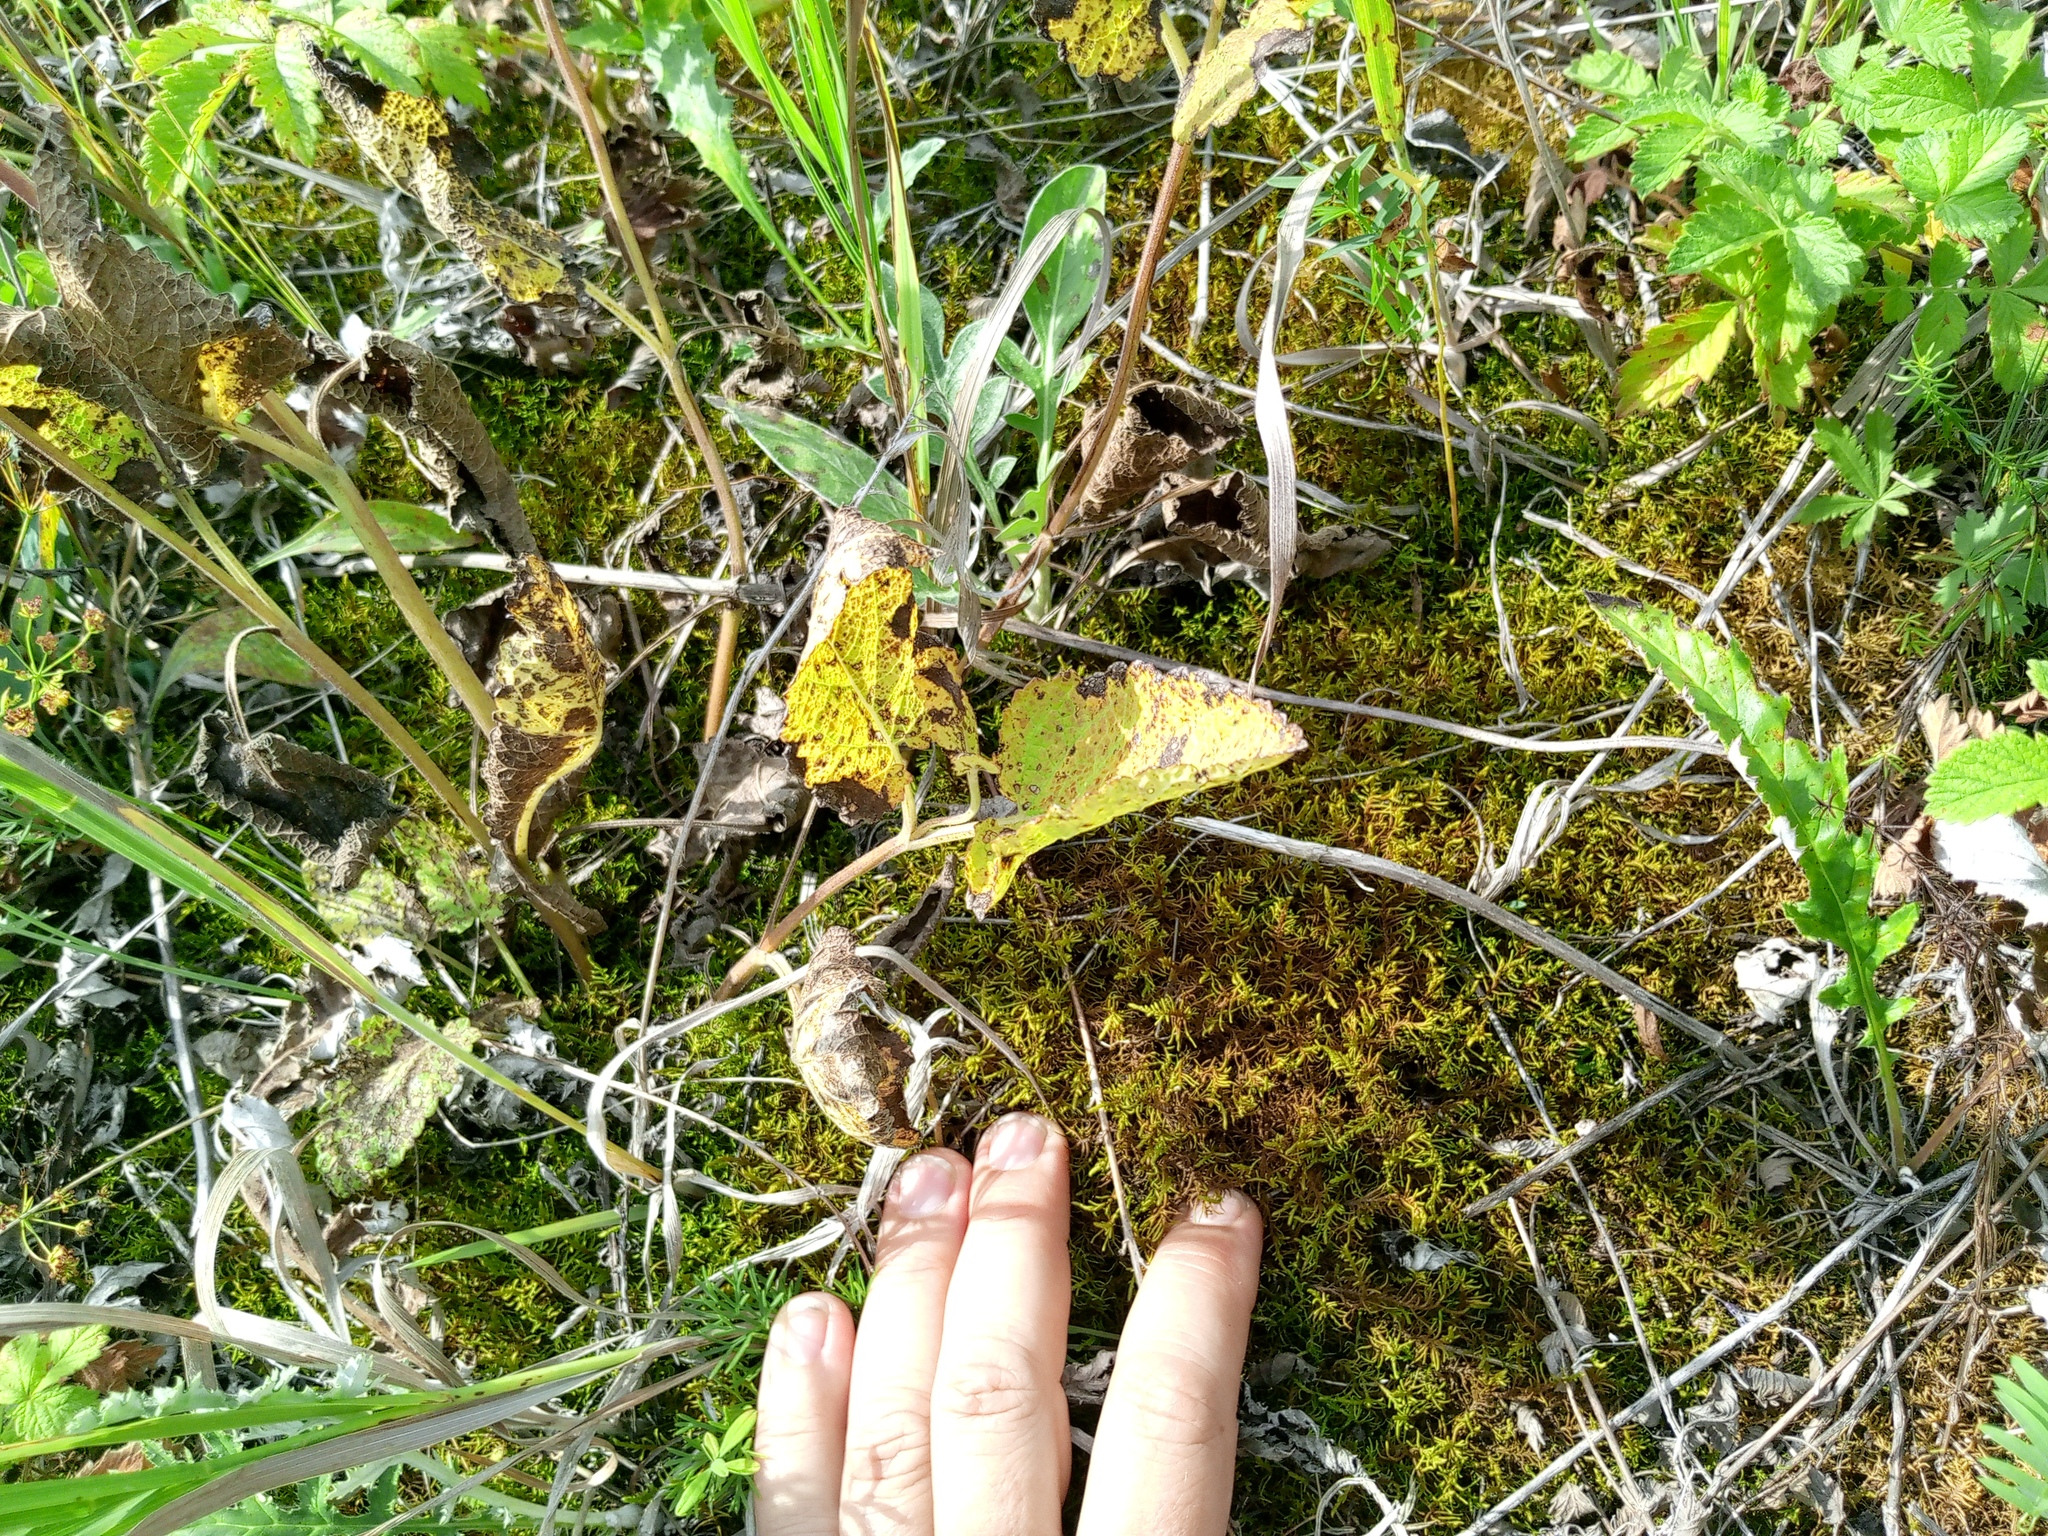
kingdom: Plantae
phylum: Bryophyta
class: Bryopsida
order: Hypnales
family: Thuidiaceae
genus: Abietinella
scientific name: Abietinella abietina
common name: Wiry fern moss
